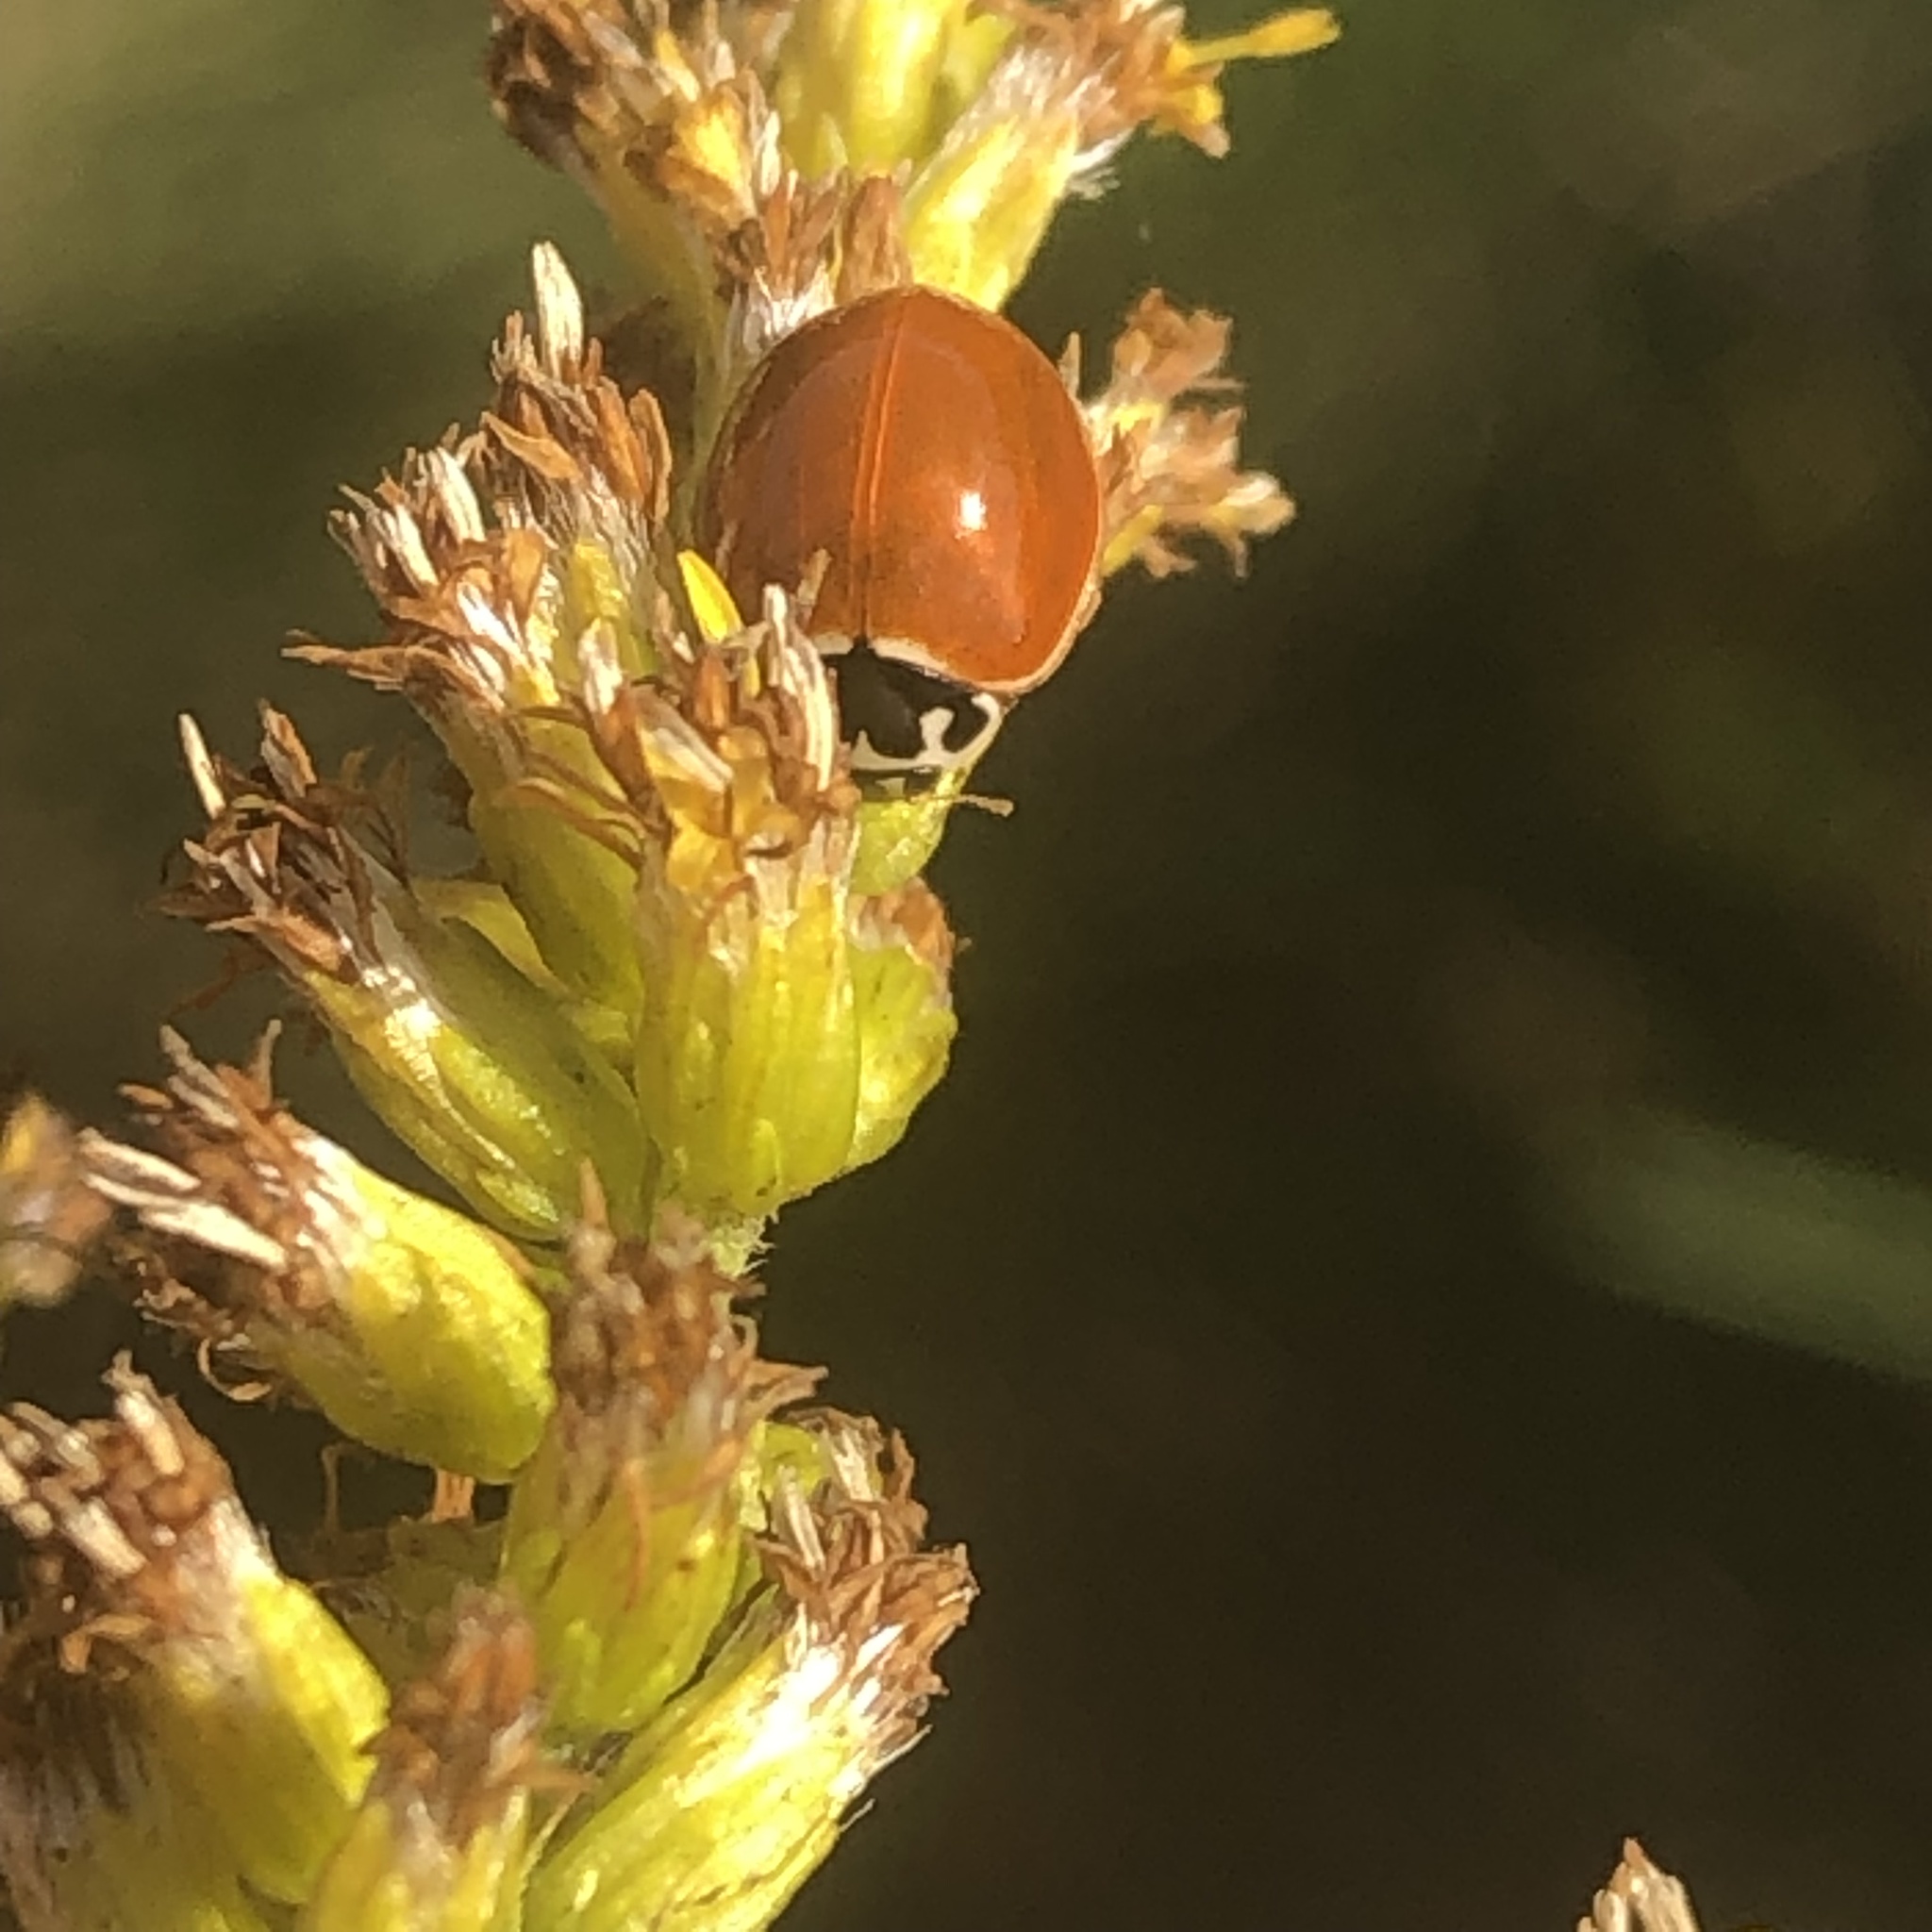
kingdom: Animalia
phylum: Arthropoda
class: Insecta
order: Coleoptera
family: Coccinellidae
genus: Cycloneda
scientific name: Cycloneda munda
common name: Polished lady beetle
